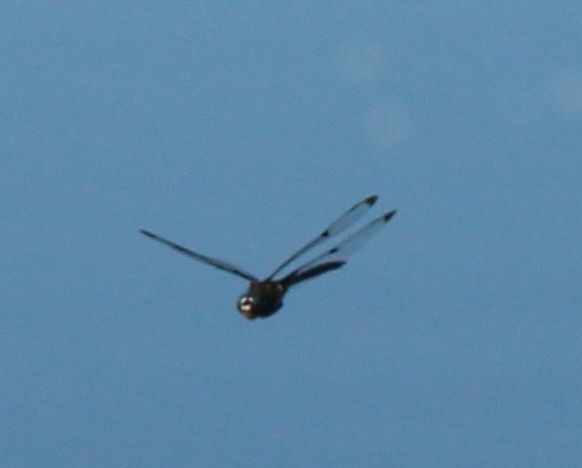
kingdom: Animalia
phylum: Arthropoda
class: Insecta
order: Odonata
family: Corduliidae
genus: Epitheca
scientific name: Epitheca princeps
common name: Prince baskettail
